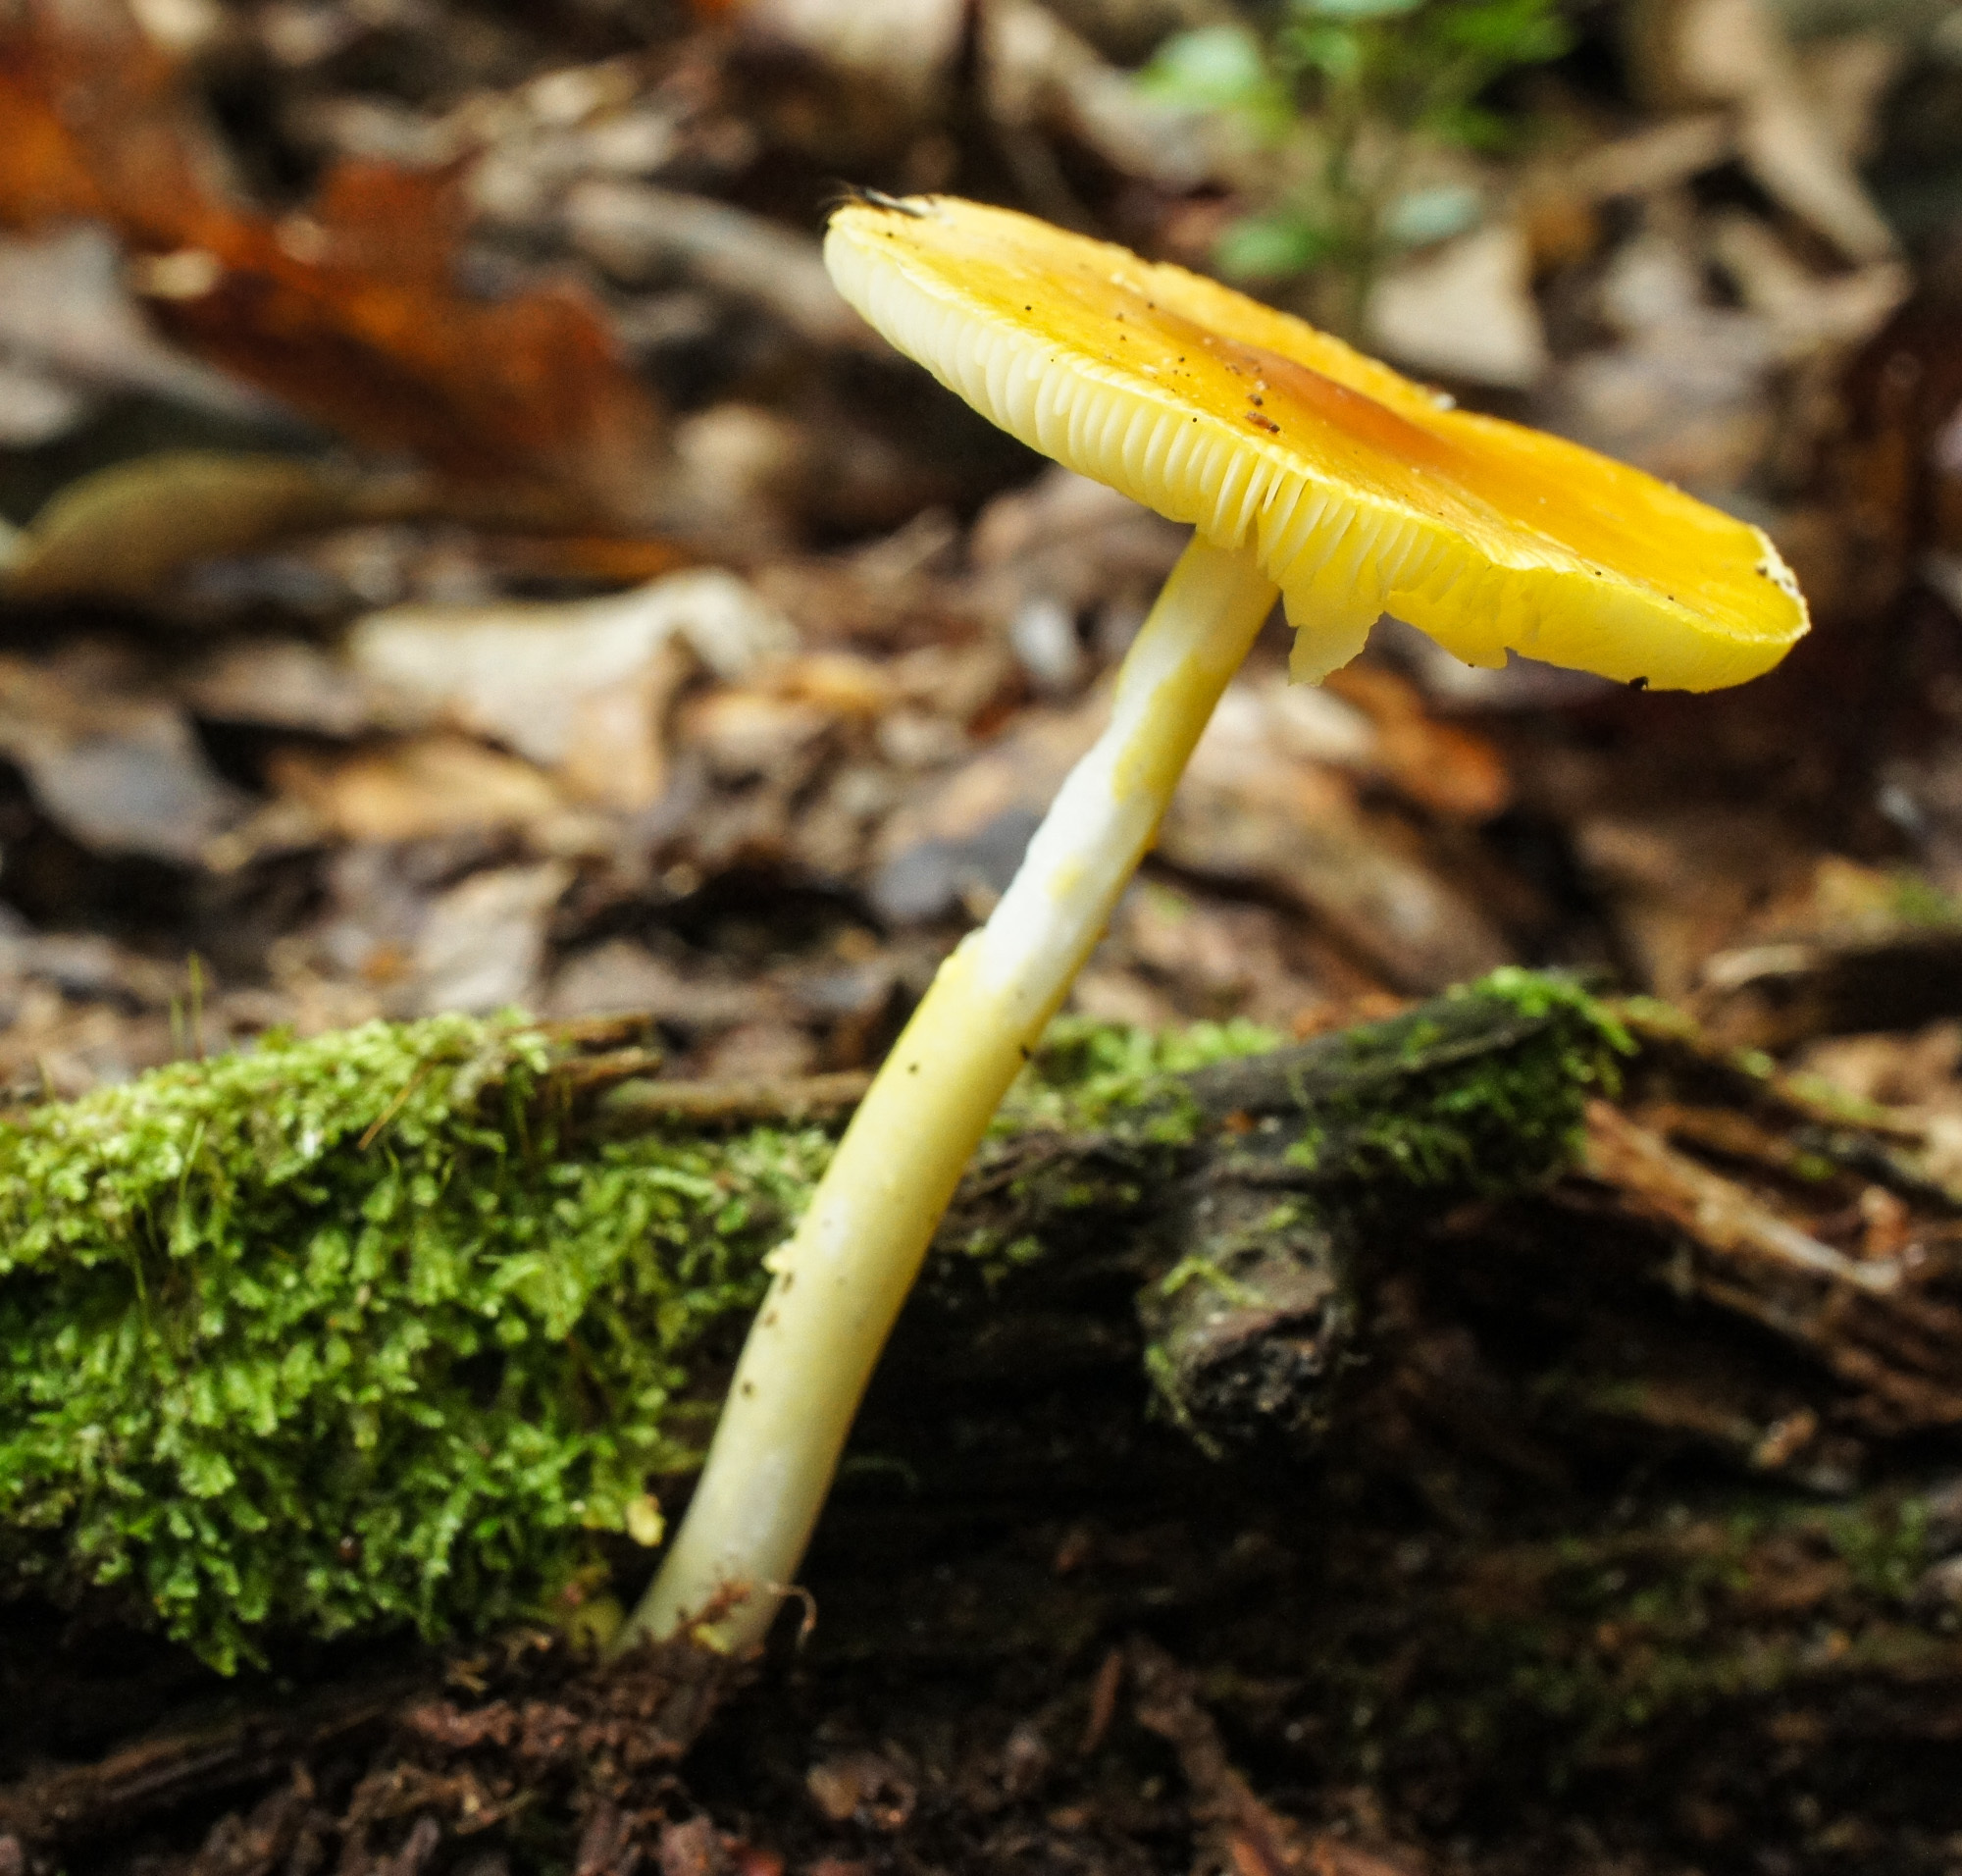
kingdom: Fungi
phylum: Basidiomycota
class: Agaricomycetes
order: Agaricales
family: Amanitaceae
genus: Amanita
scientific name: Amanita frostiana
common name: Frost's amanita
